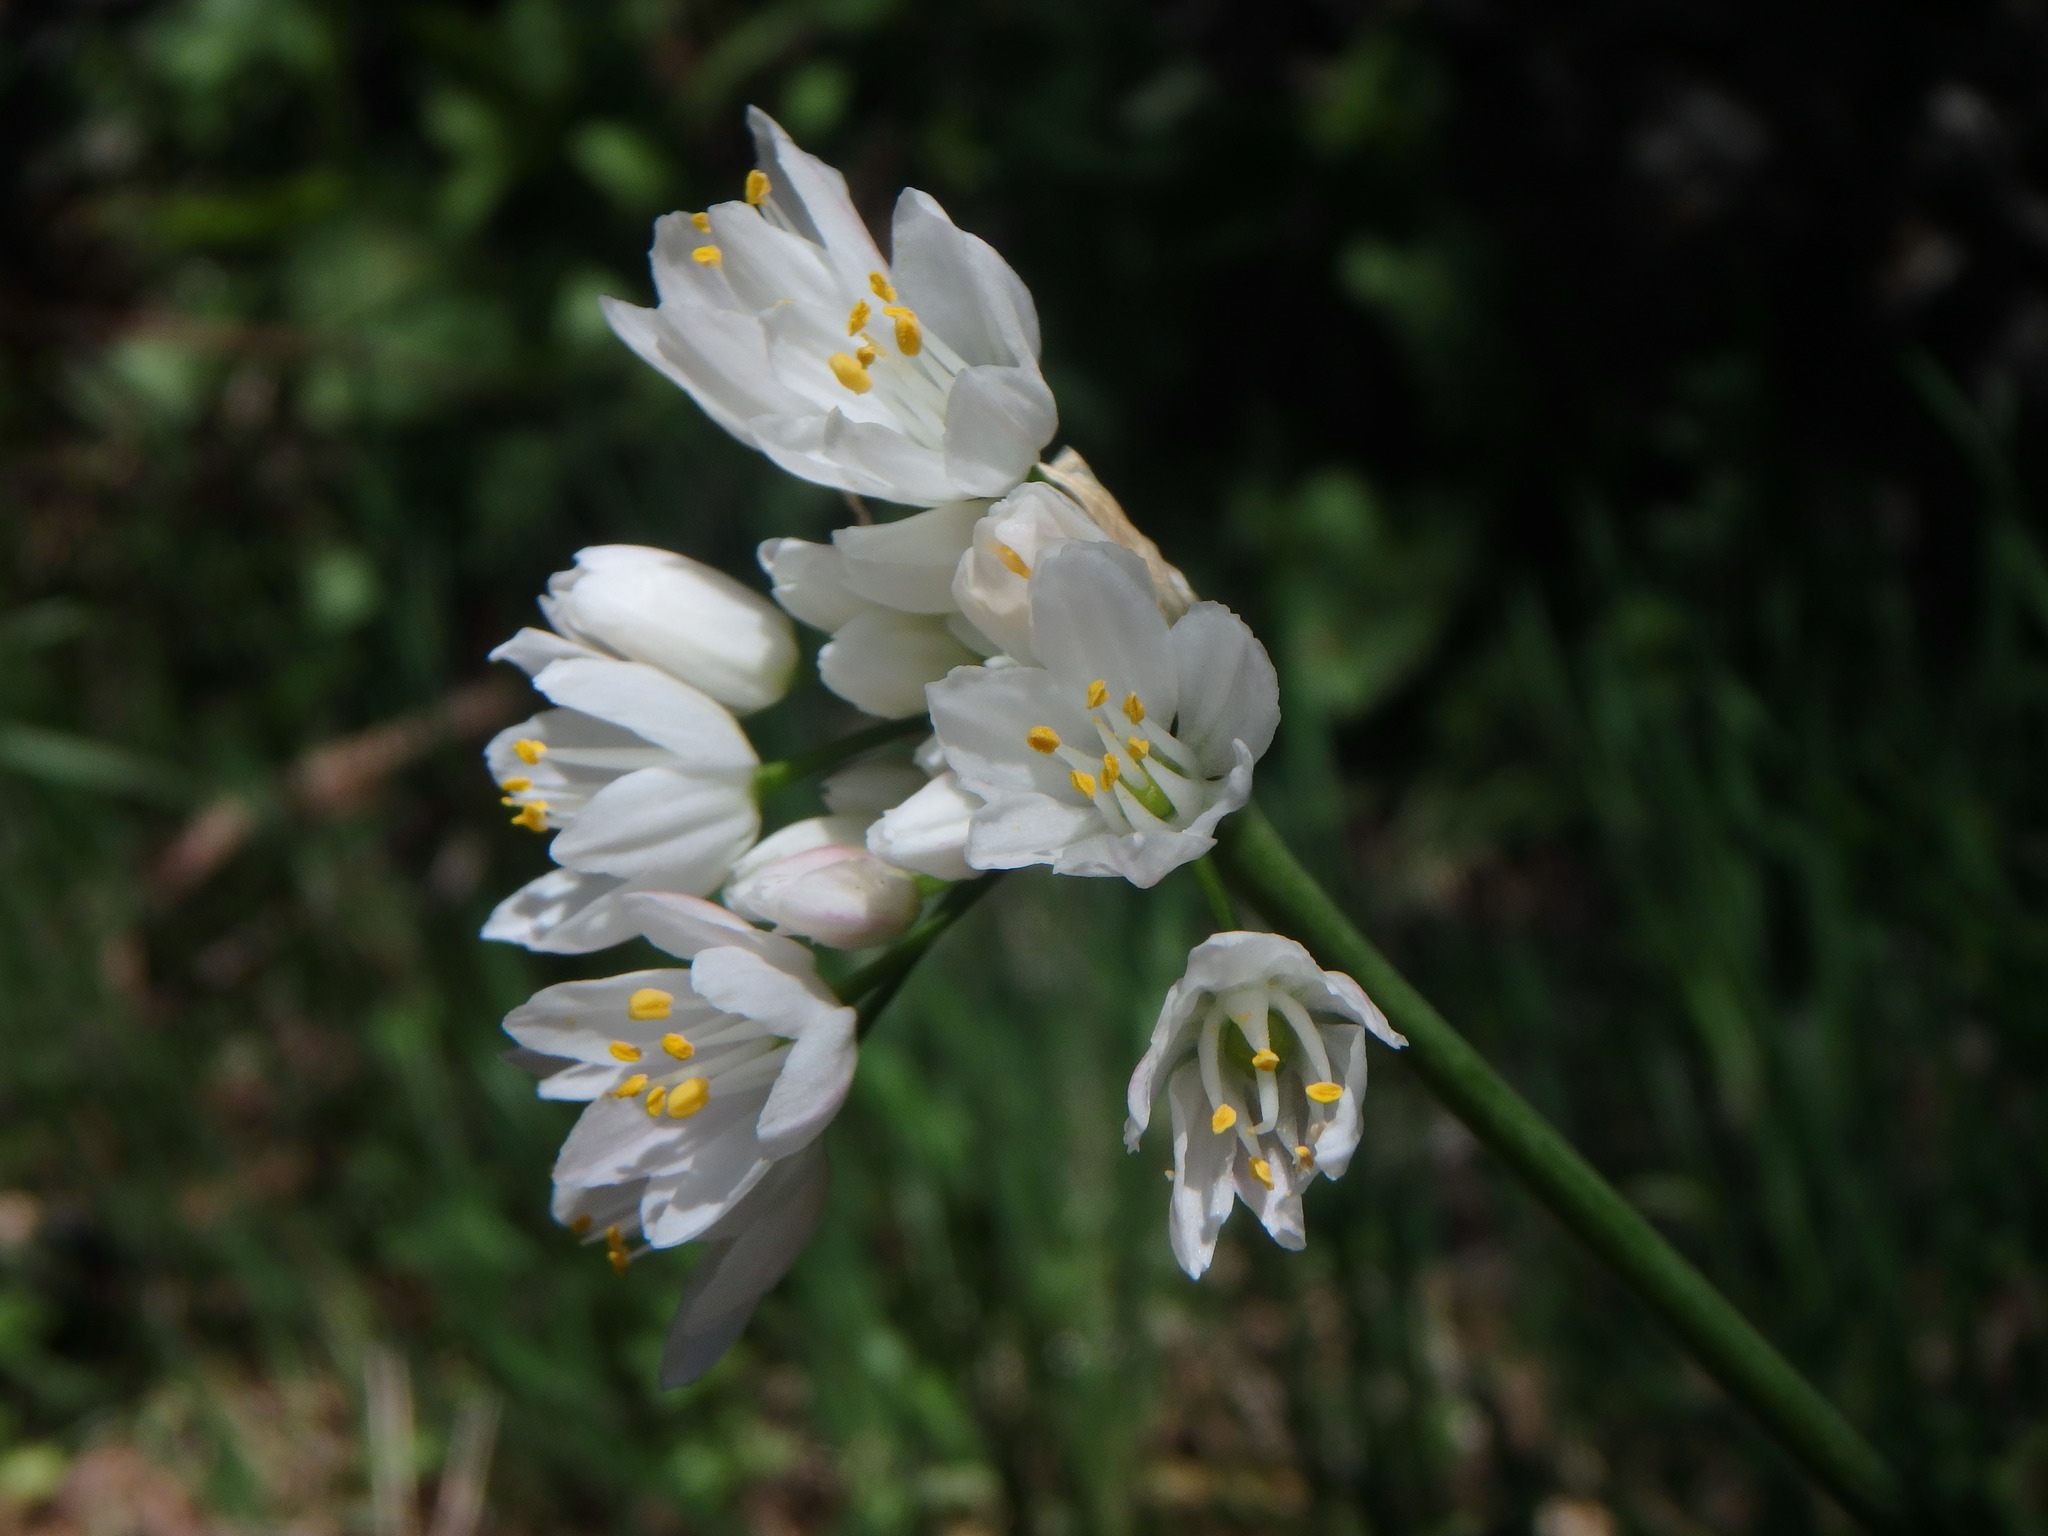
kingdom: Plantae
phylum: Tracheophyta
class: Liliopsida
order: Asparagales
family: Amaryllidaceae
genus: Allium
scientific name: Allium canariense
